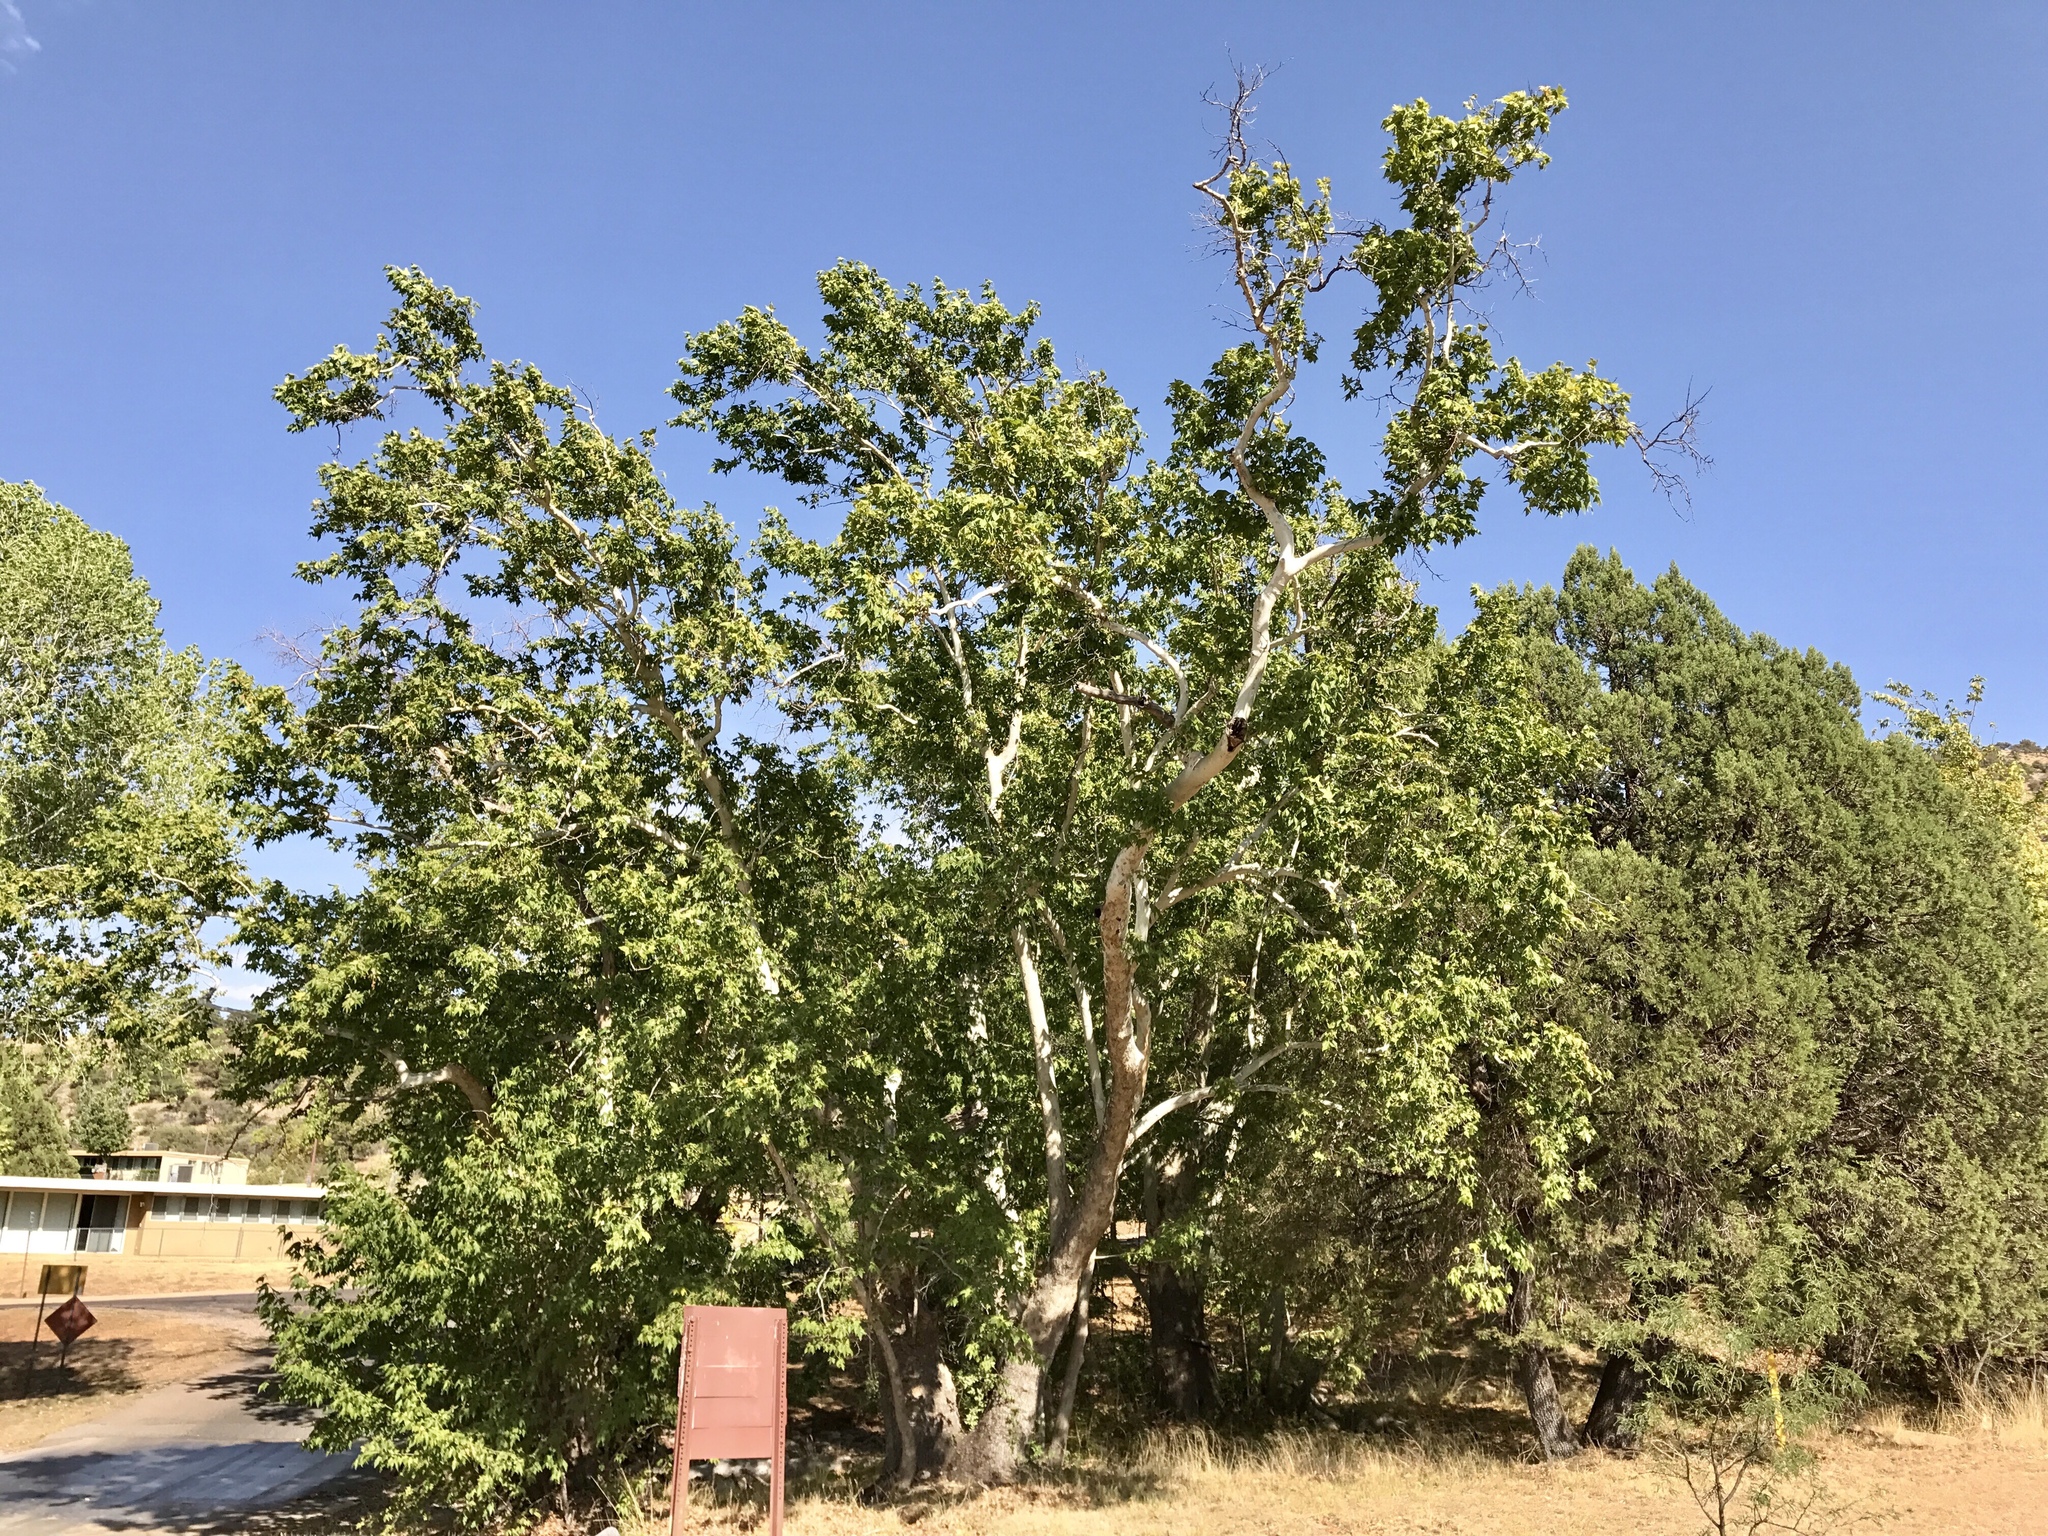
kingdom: Plantae
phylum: Tracheophyta
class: Magnoliopsida
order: Proteales
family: Platanaceae
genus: Platanus
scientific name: Platanus wrightii
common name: Arizona sycamore
